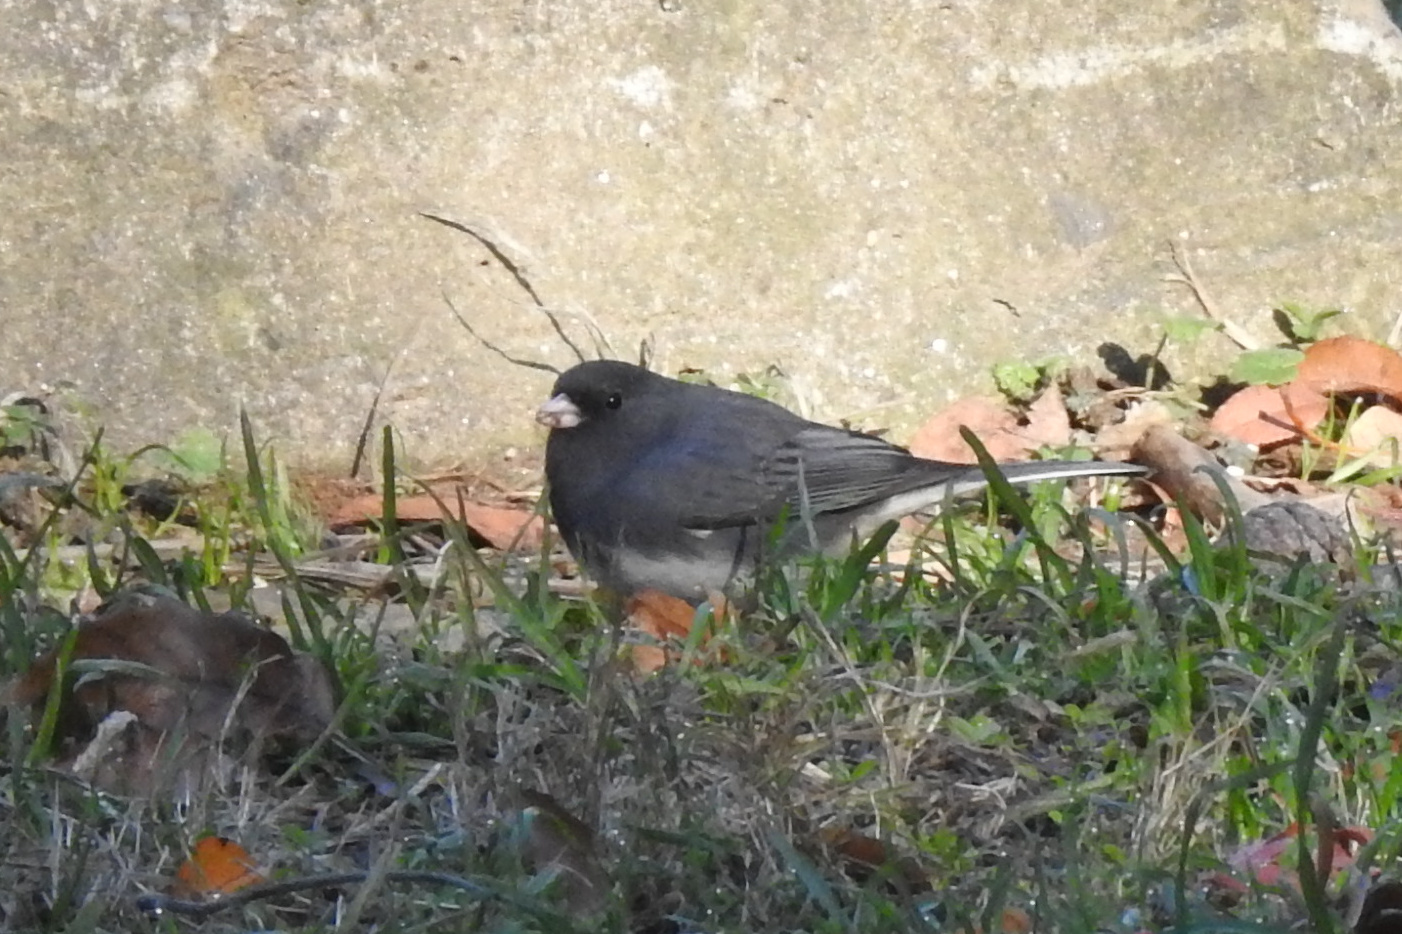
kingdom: Animalia
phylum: Chordata
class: Aves
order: Passeriformes
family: Passerellidae
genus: Junco
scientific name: Junco hyemalis
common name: Dark-eyed junco
